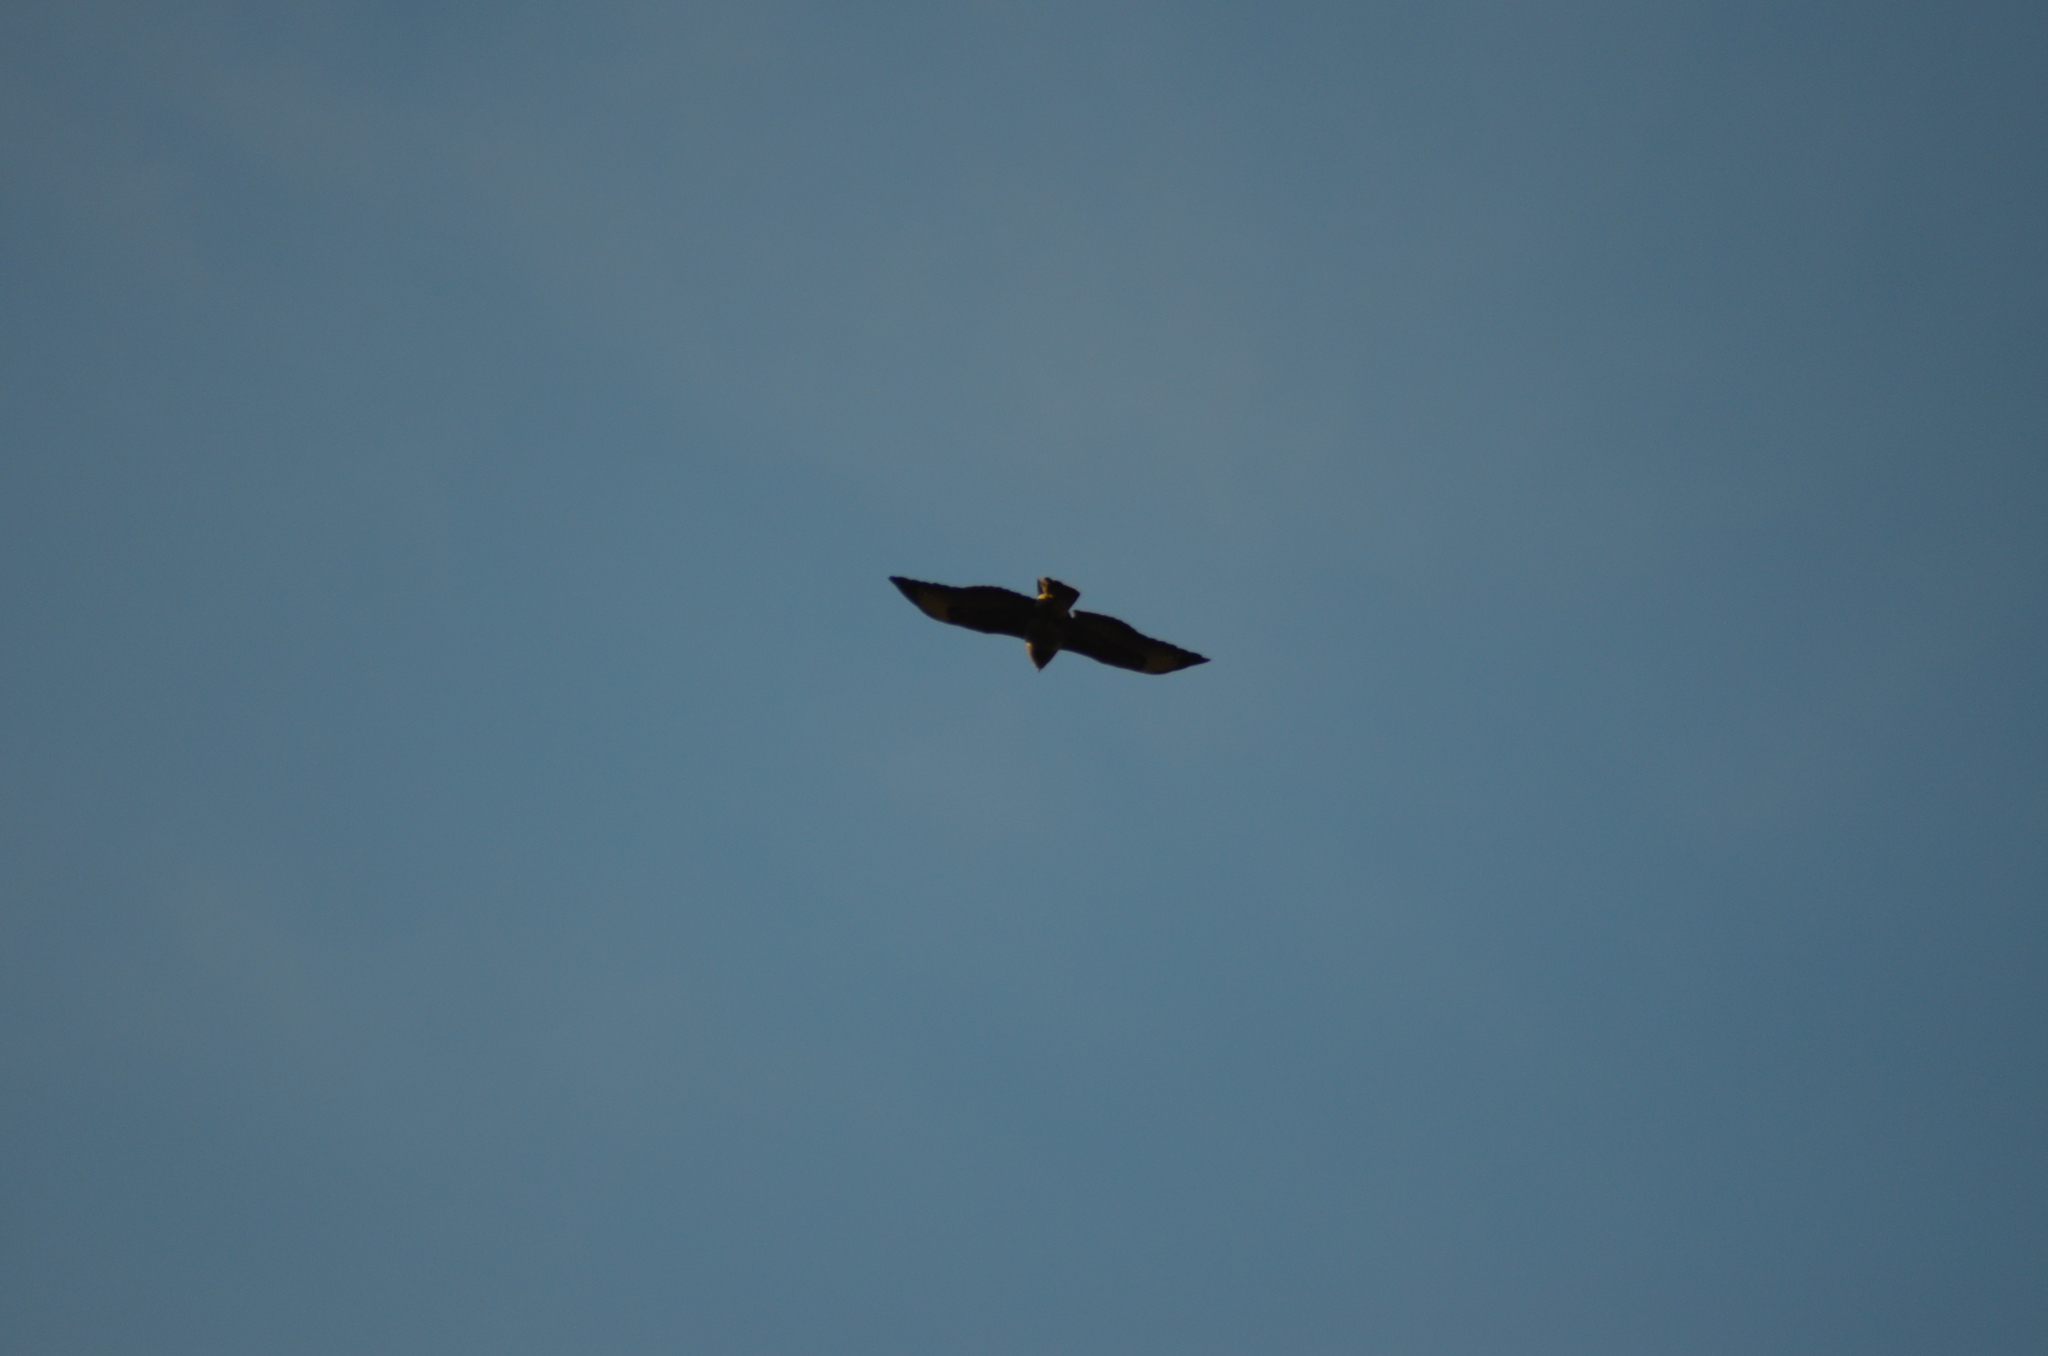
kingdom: Animalia
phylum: Chordata
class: Aves
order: Accipitriformes
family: Accipitridae
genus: Buteo
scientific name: Buteo buteo
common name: Common buzzard
